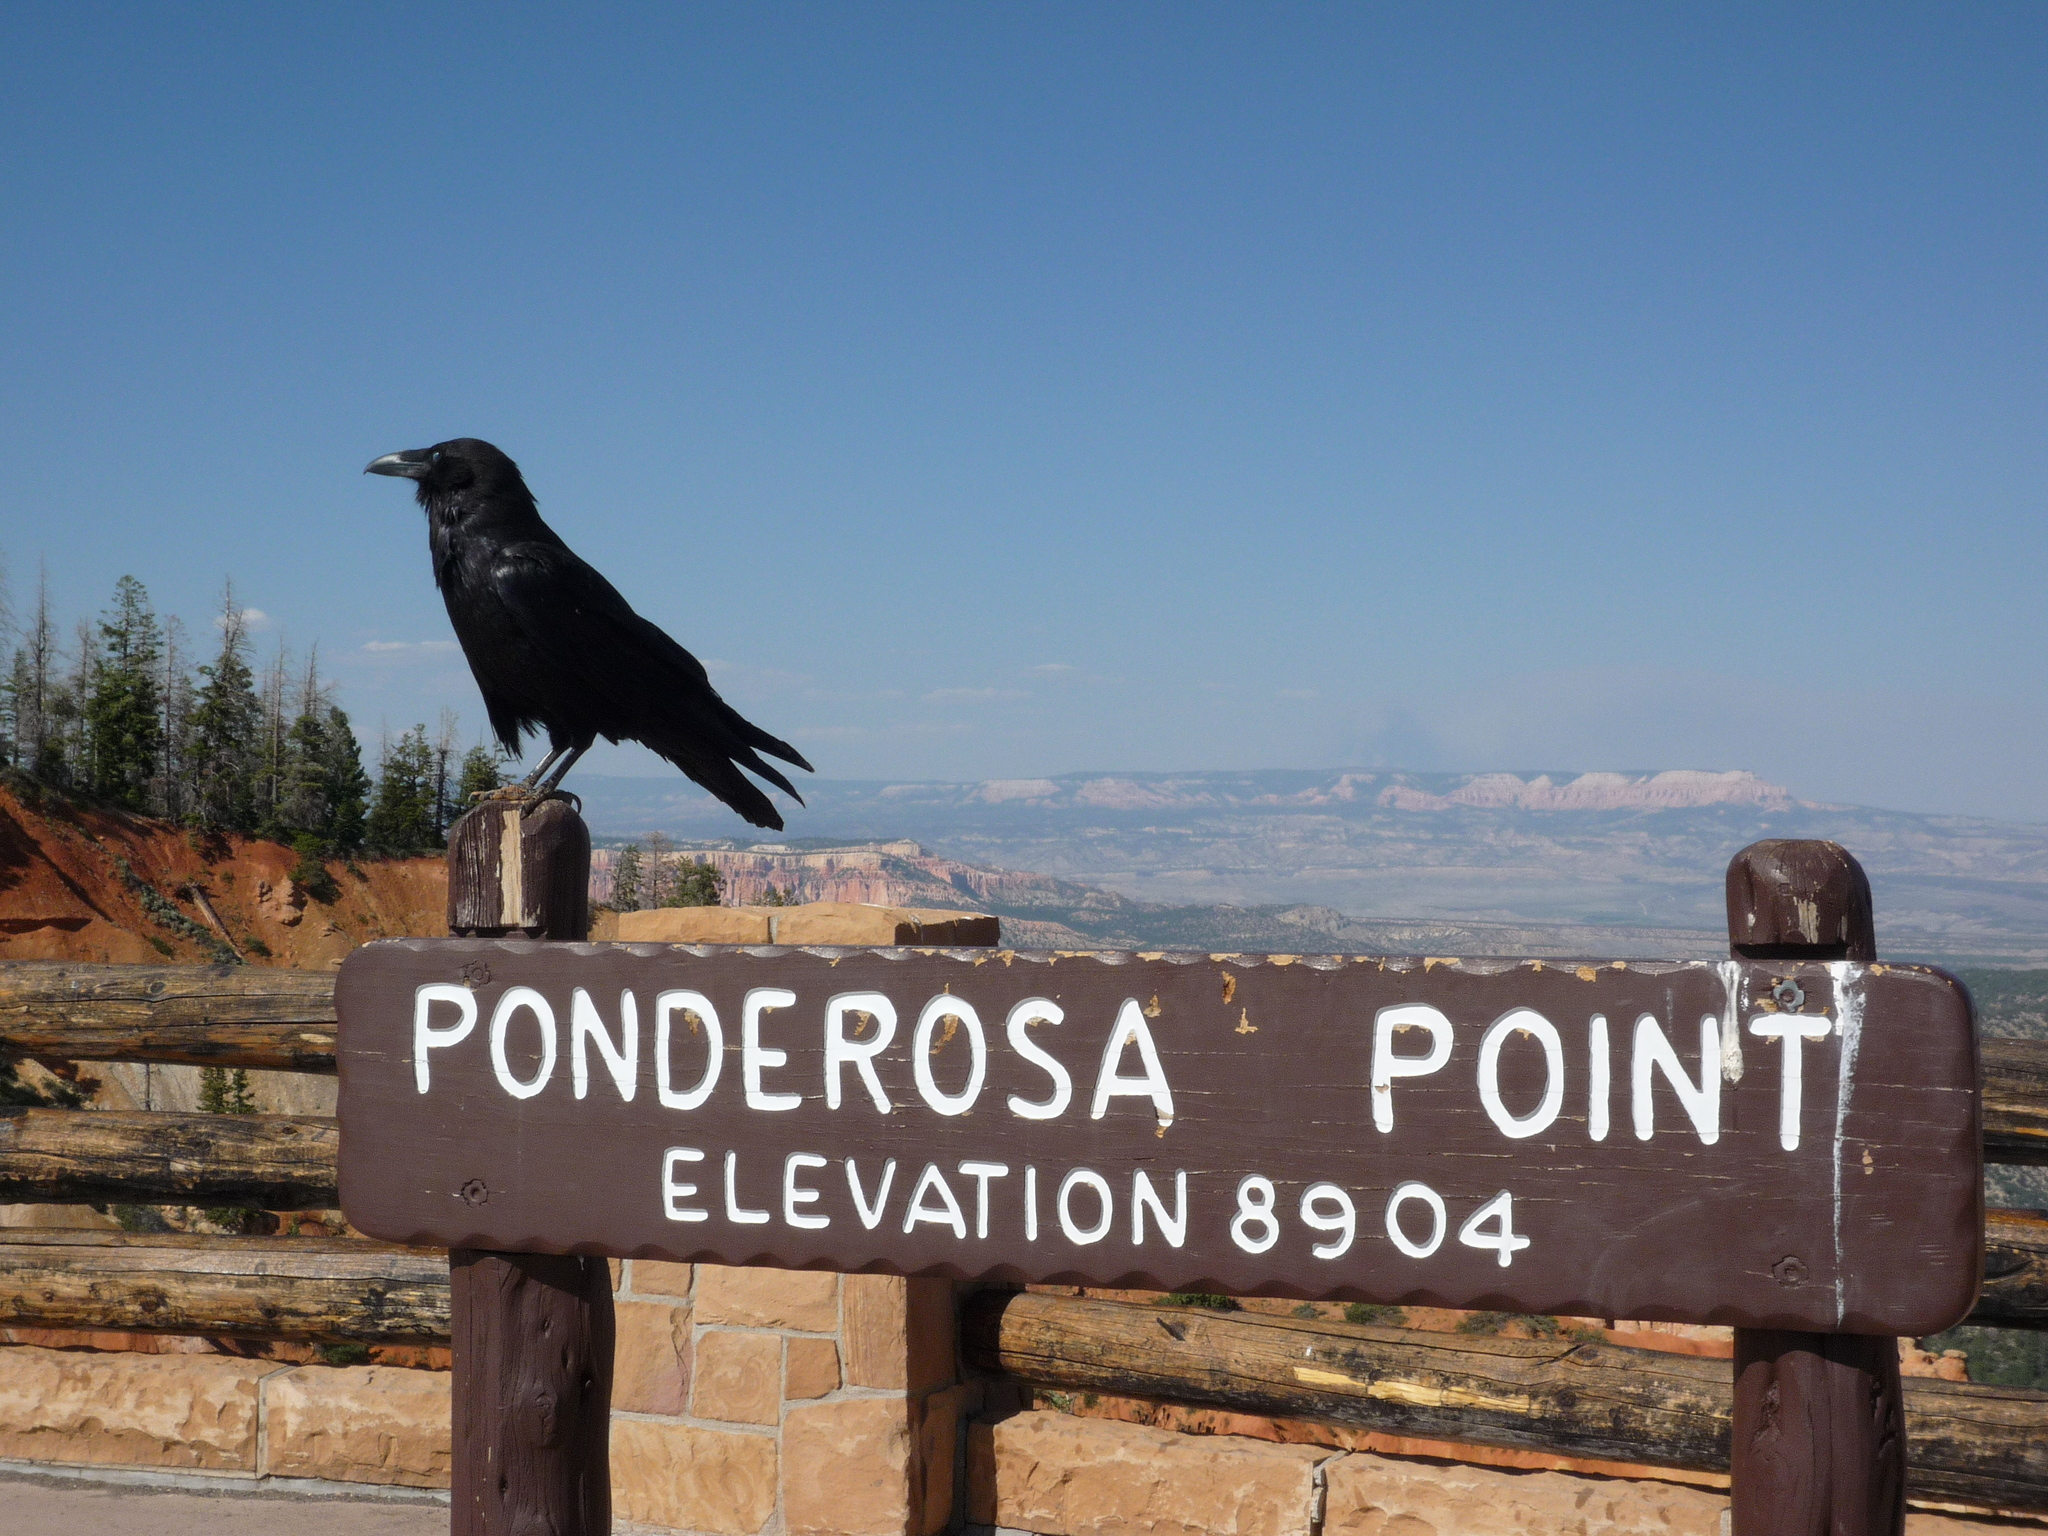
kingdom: Animalia
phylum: Chordata
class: Aves
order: Passeriformes
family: Corvidae
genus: Corvus
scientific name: Corvus corax
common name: Common raven
